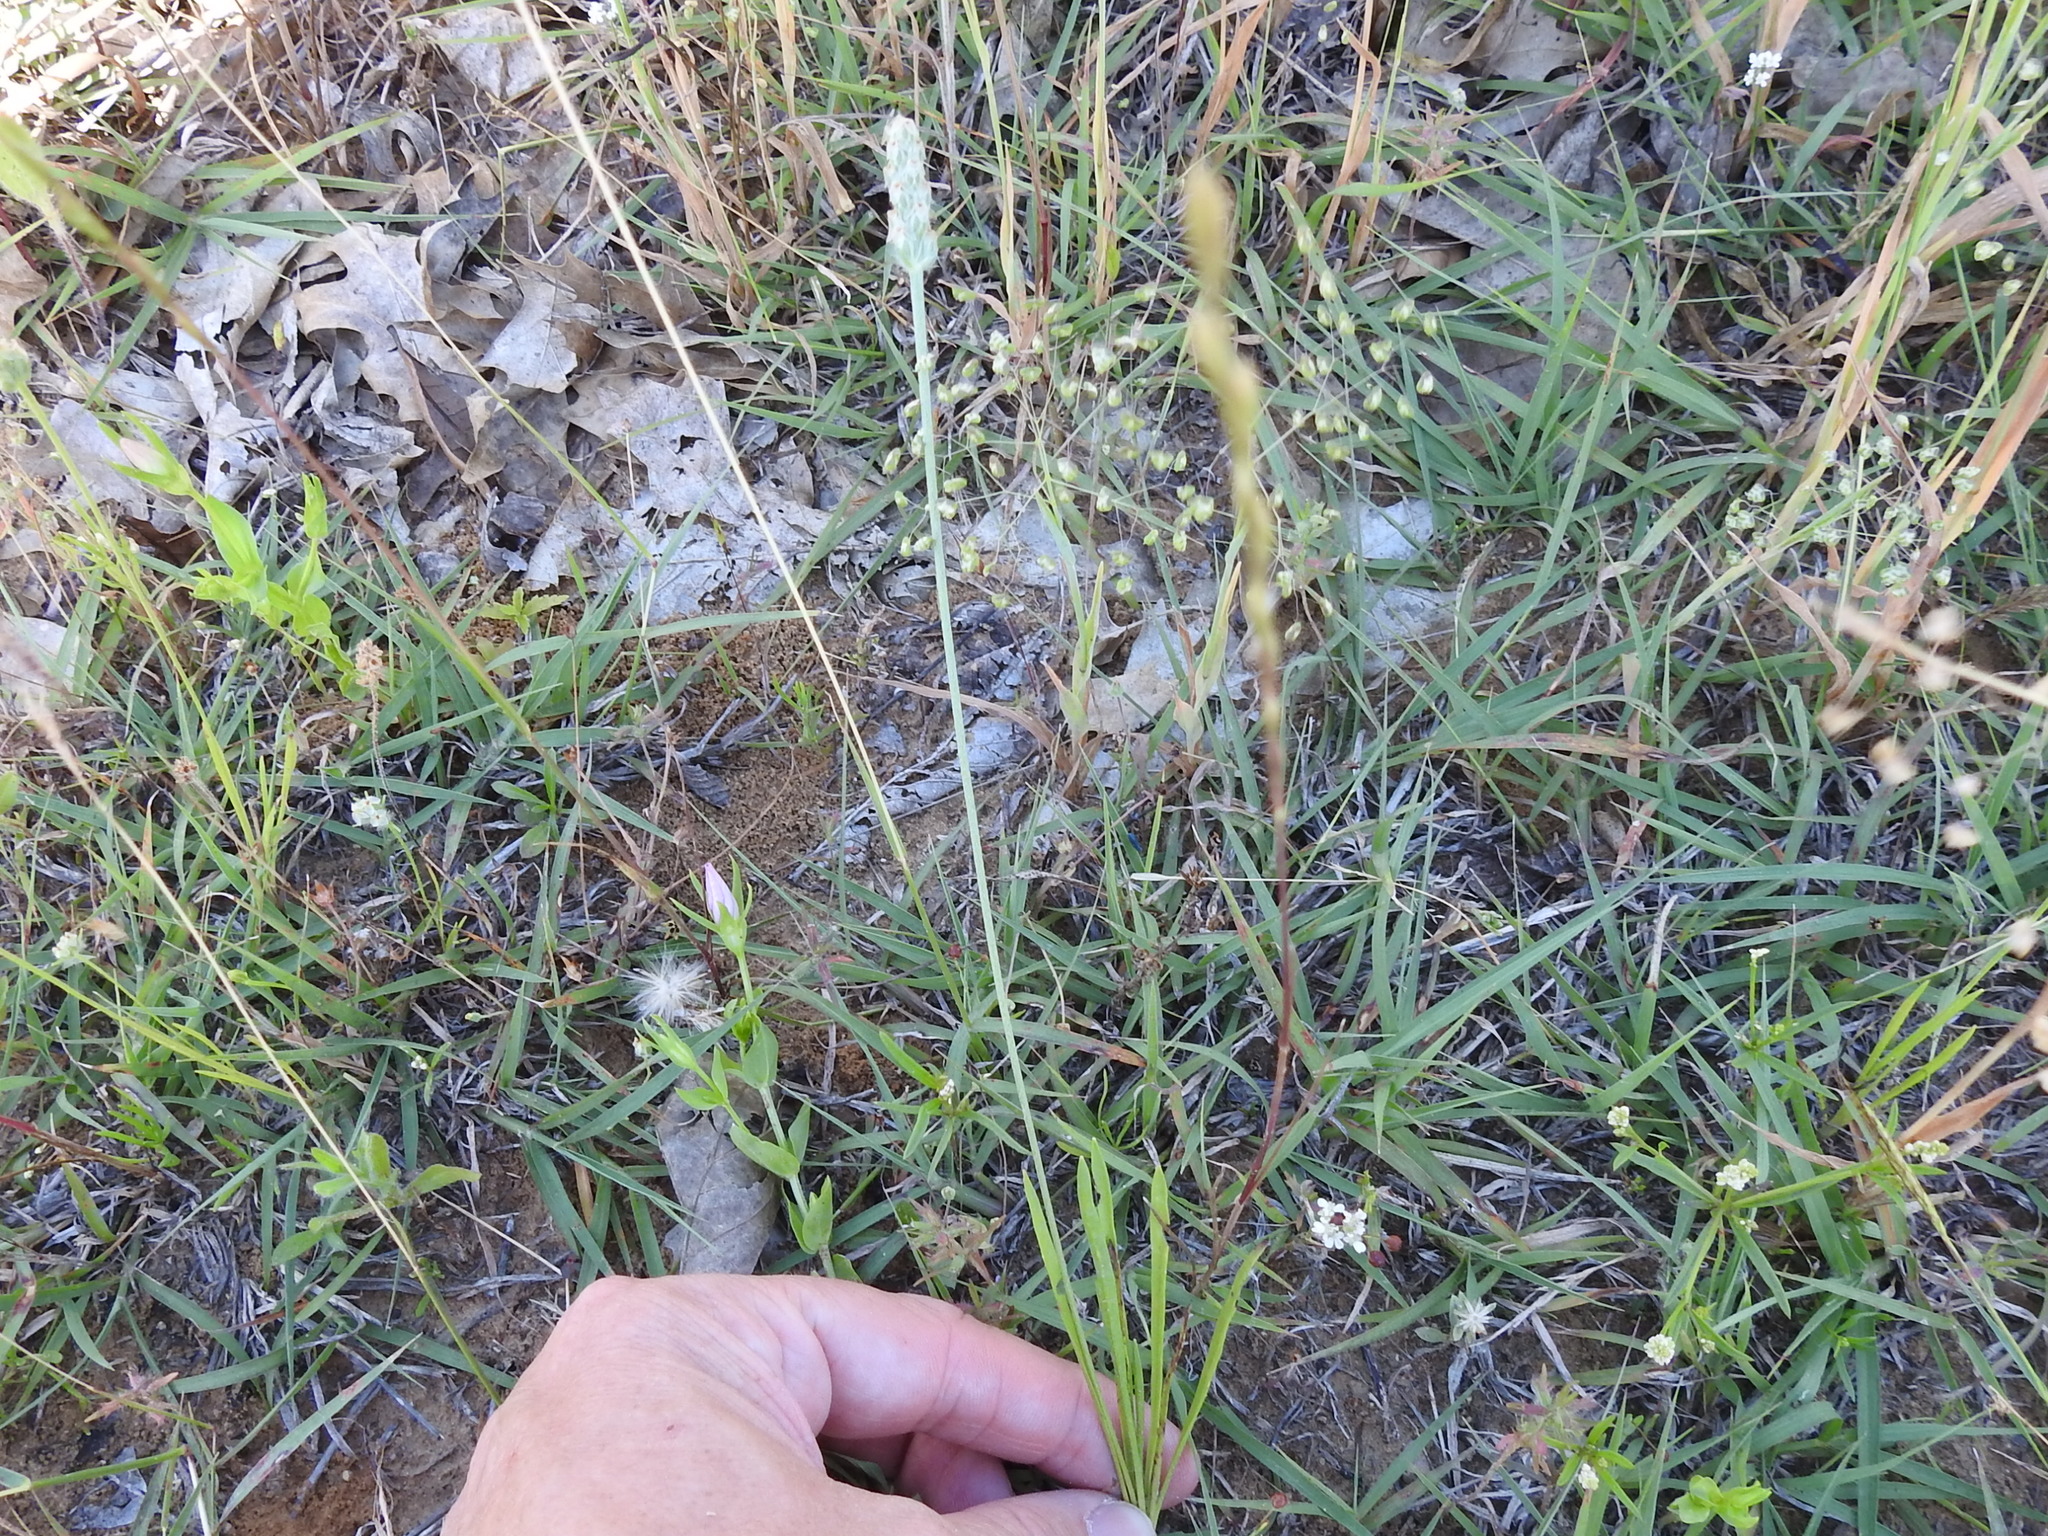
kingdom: Plantae
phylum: Tracheophyta
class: Magnoliopsida
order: Lamiales
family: Plantaginaceae
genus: Plantago
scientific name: Plantago wrightiana
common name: Wright's plantain
